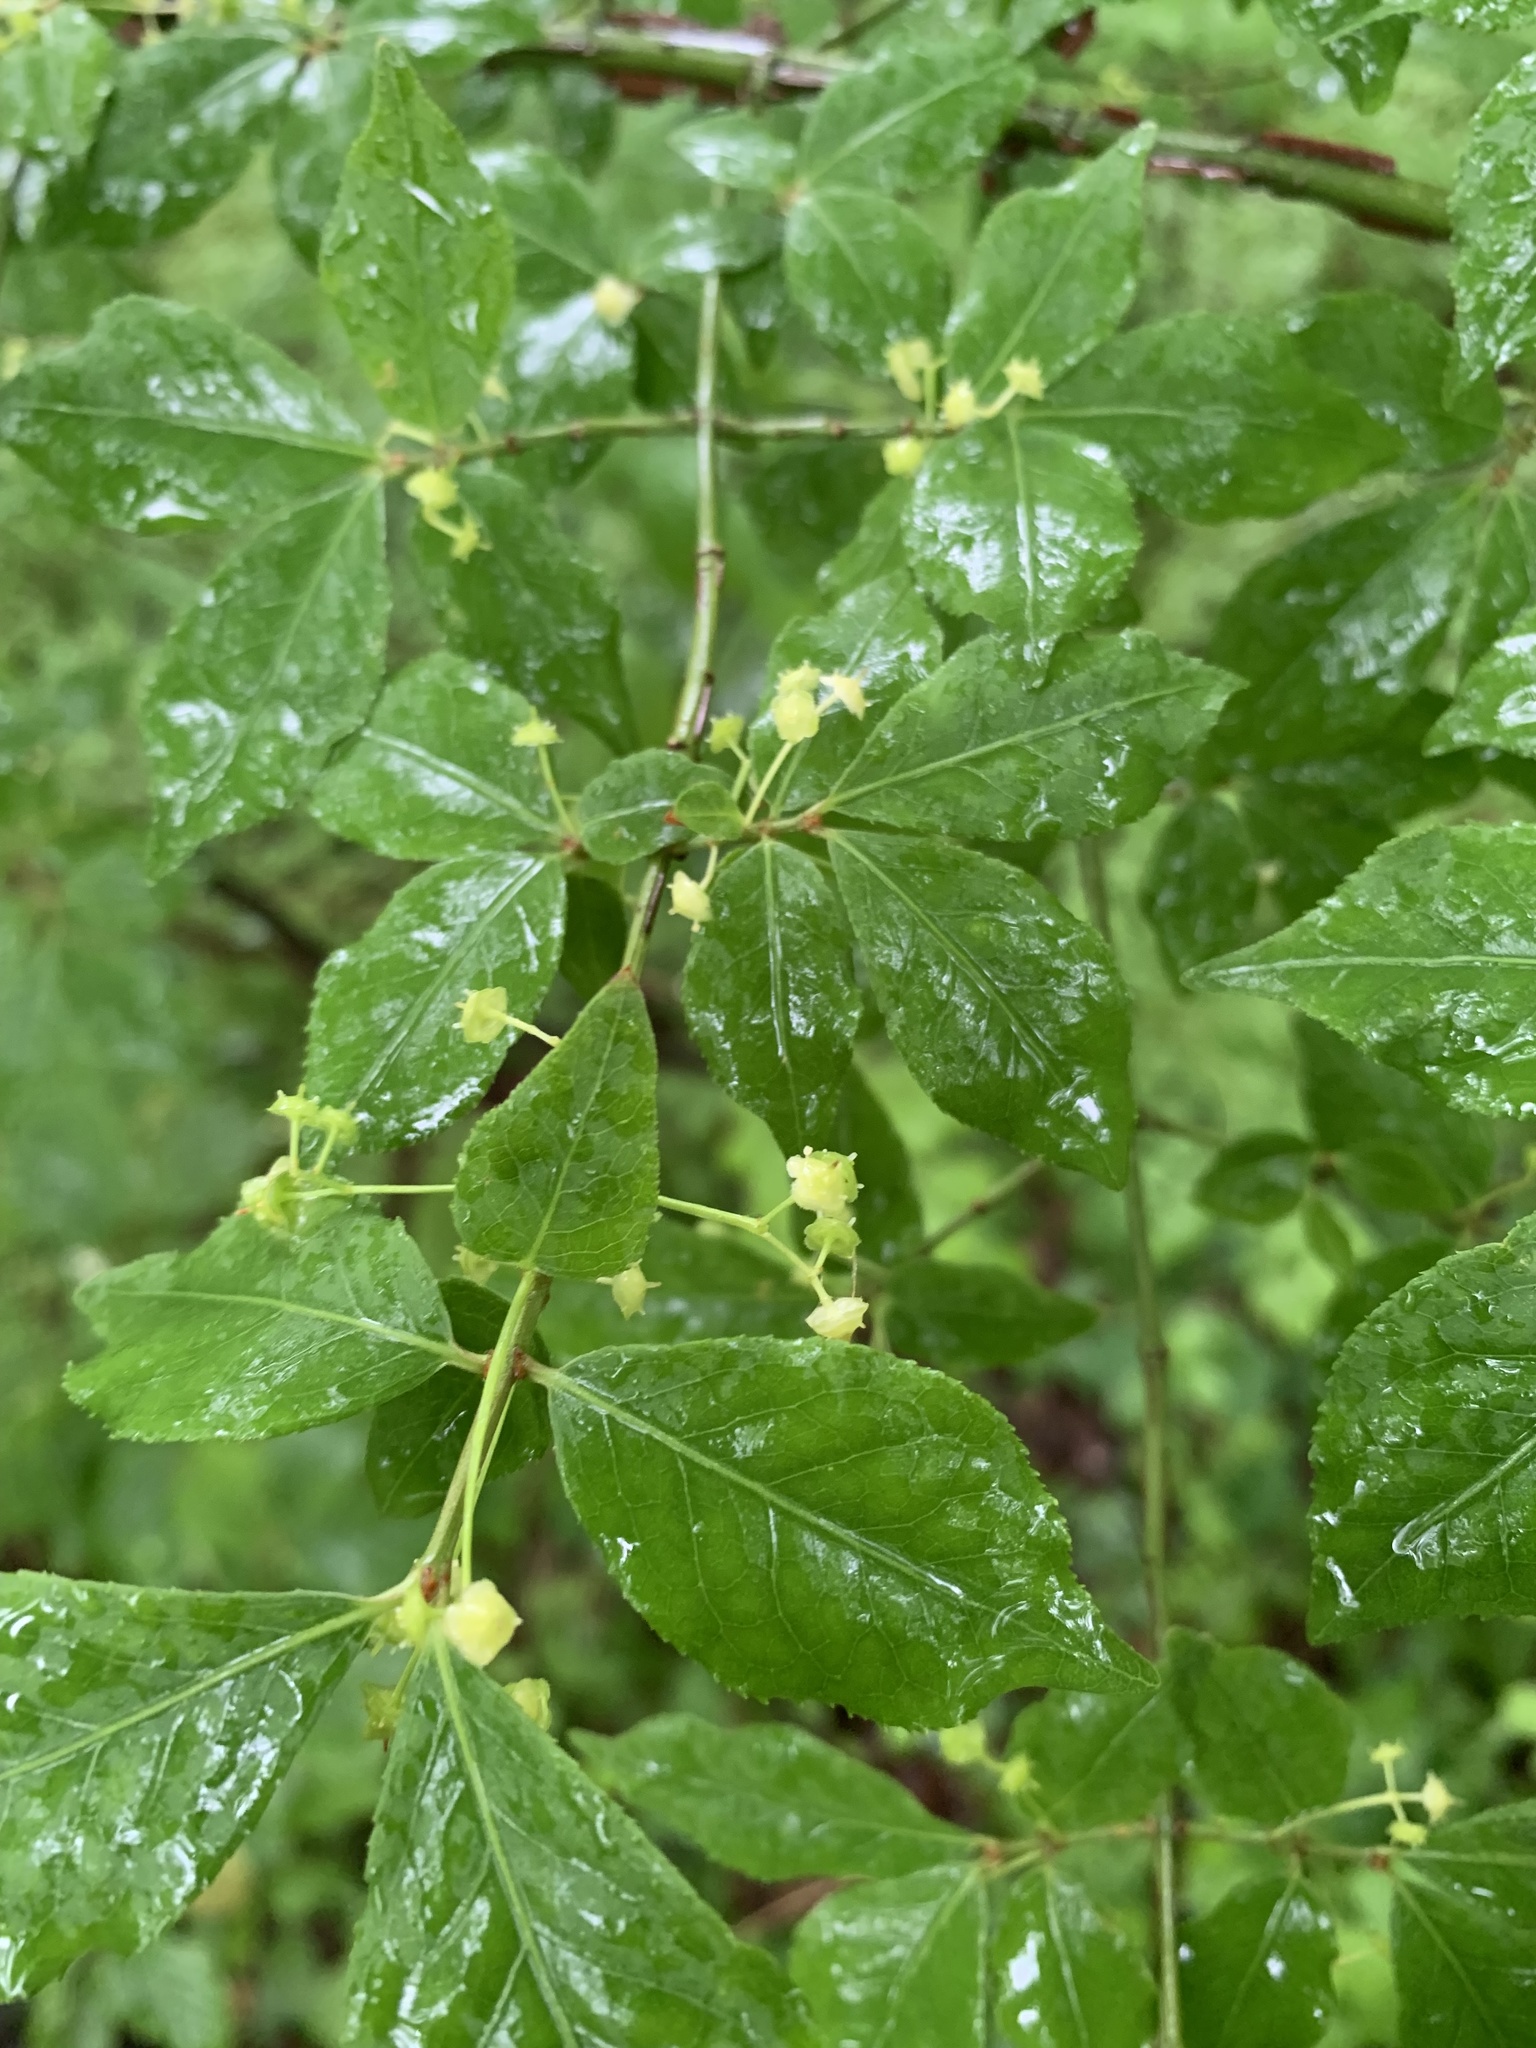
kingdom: Plantae
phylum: Tracheophyta
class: Magnoliopsida
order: Celastrales
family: Celastraceae
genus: Euonymus
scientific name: Euonymus alatus
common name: Winged euonymus
